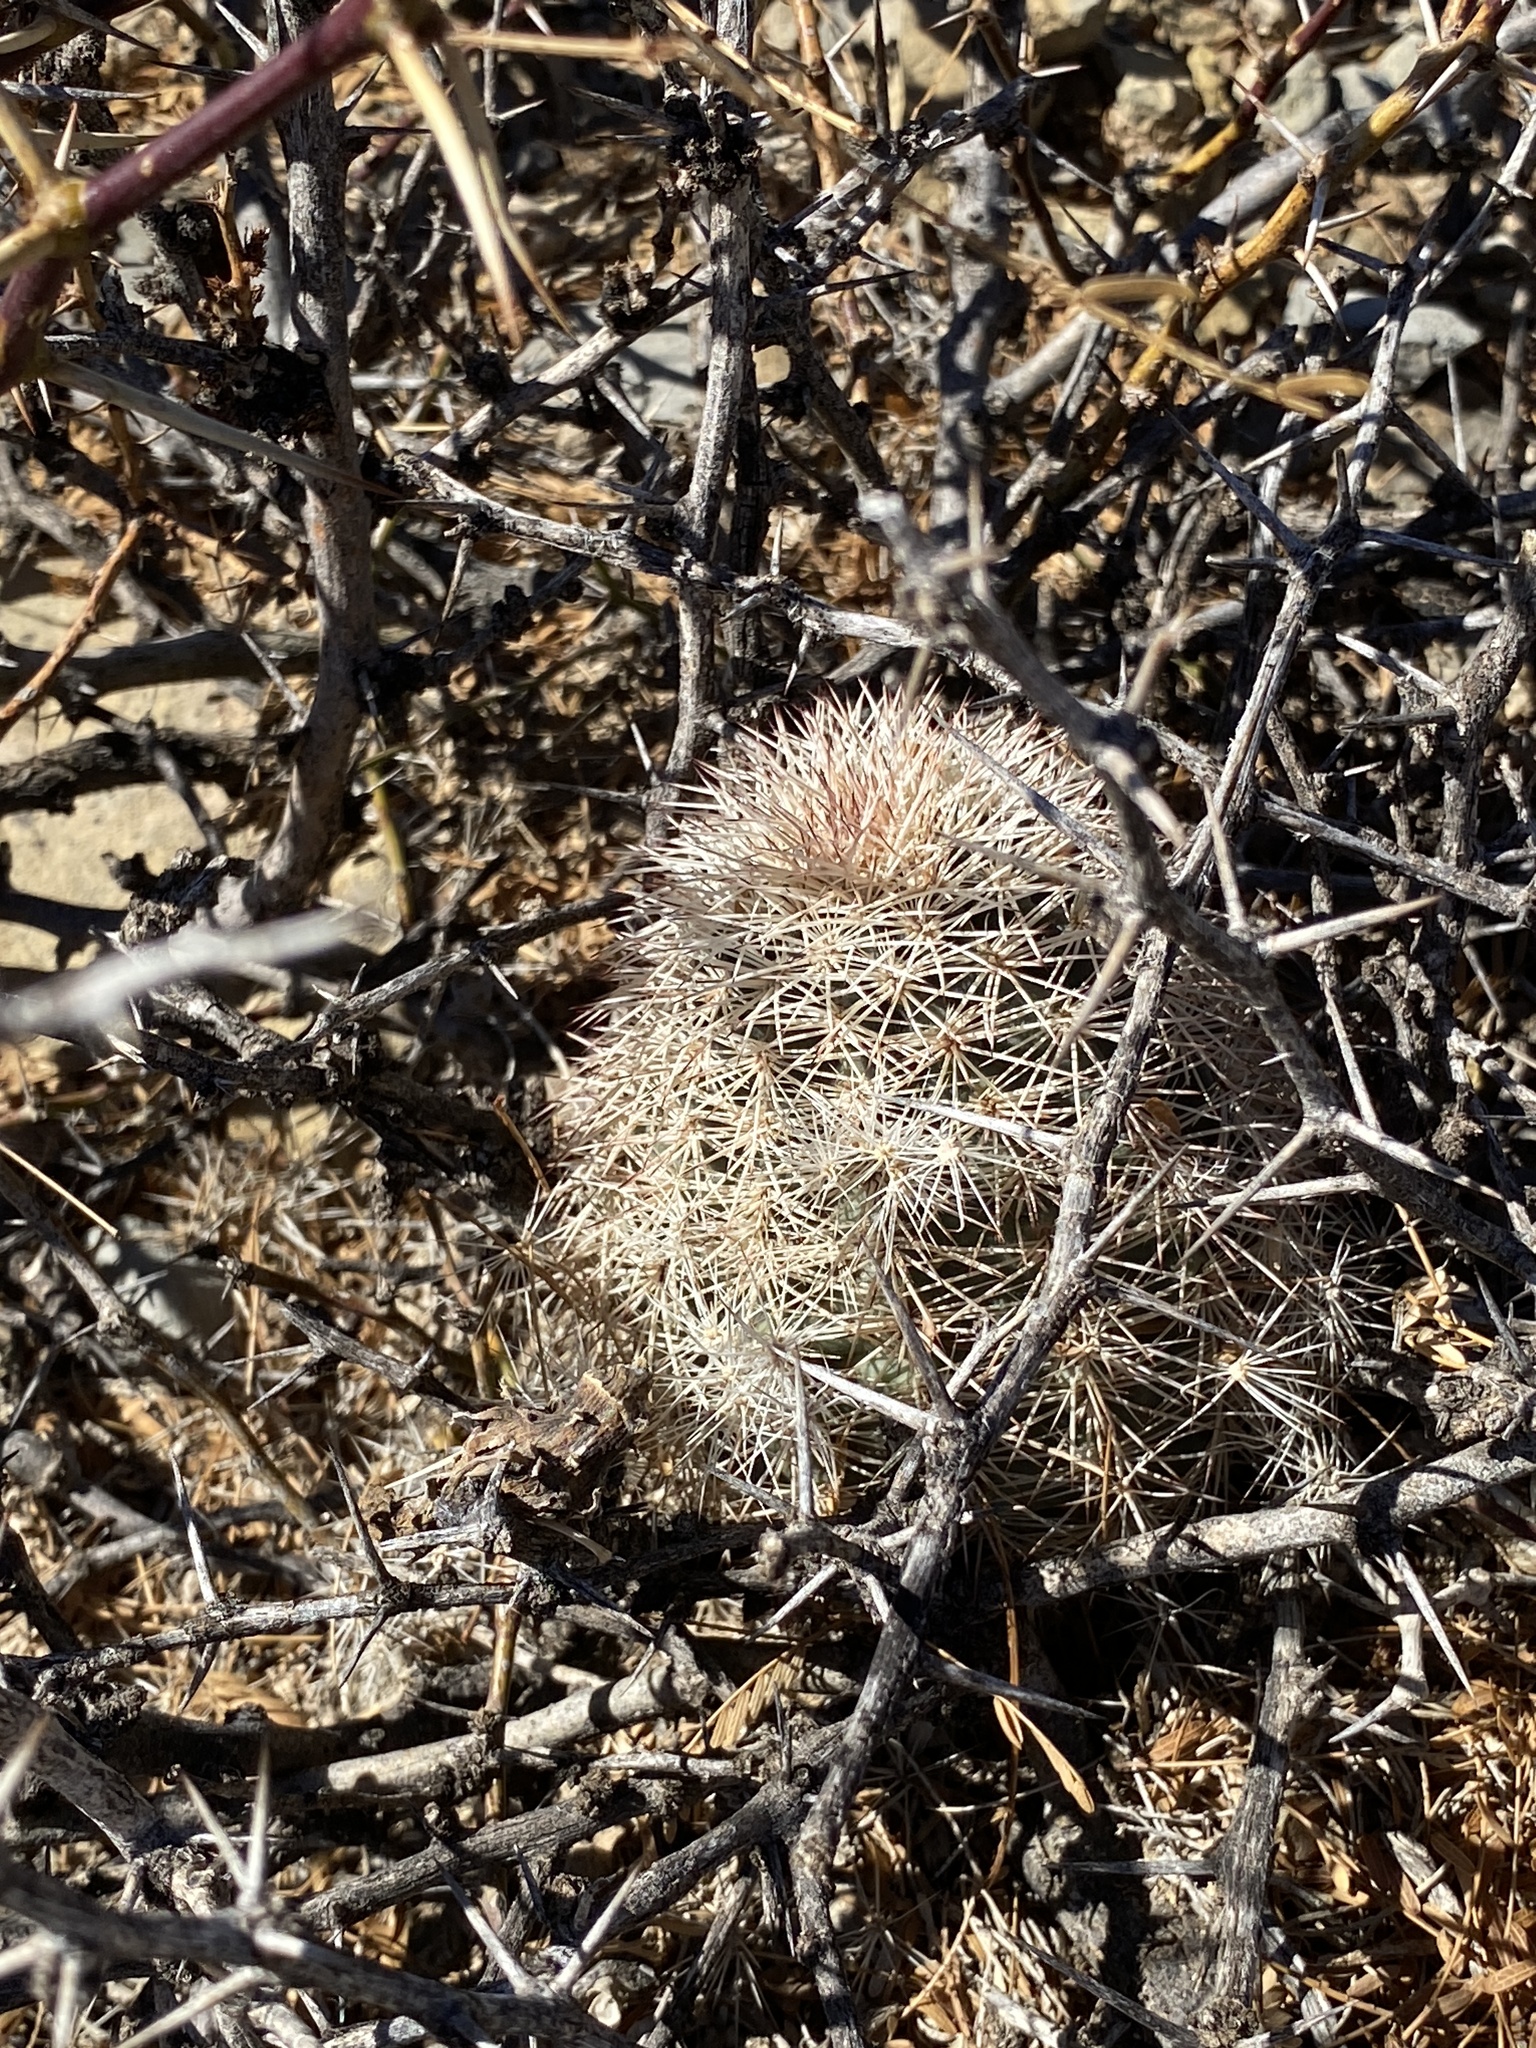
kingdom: Plantae
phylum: Tracheophyta
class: Magnoliopsida
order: Caryophyllales
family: Cactaceae
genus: Echinocereus
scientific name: Echinocereus dasyacanthus
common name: Spiny hedgehog cactus
